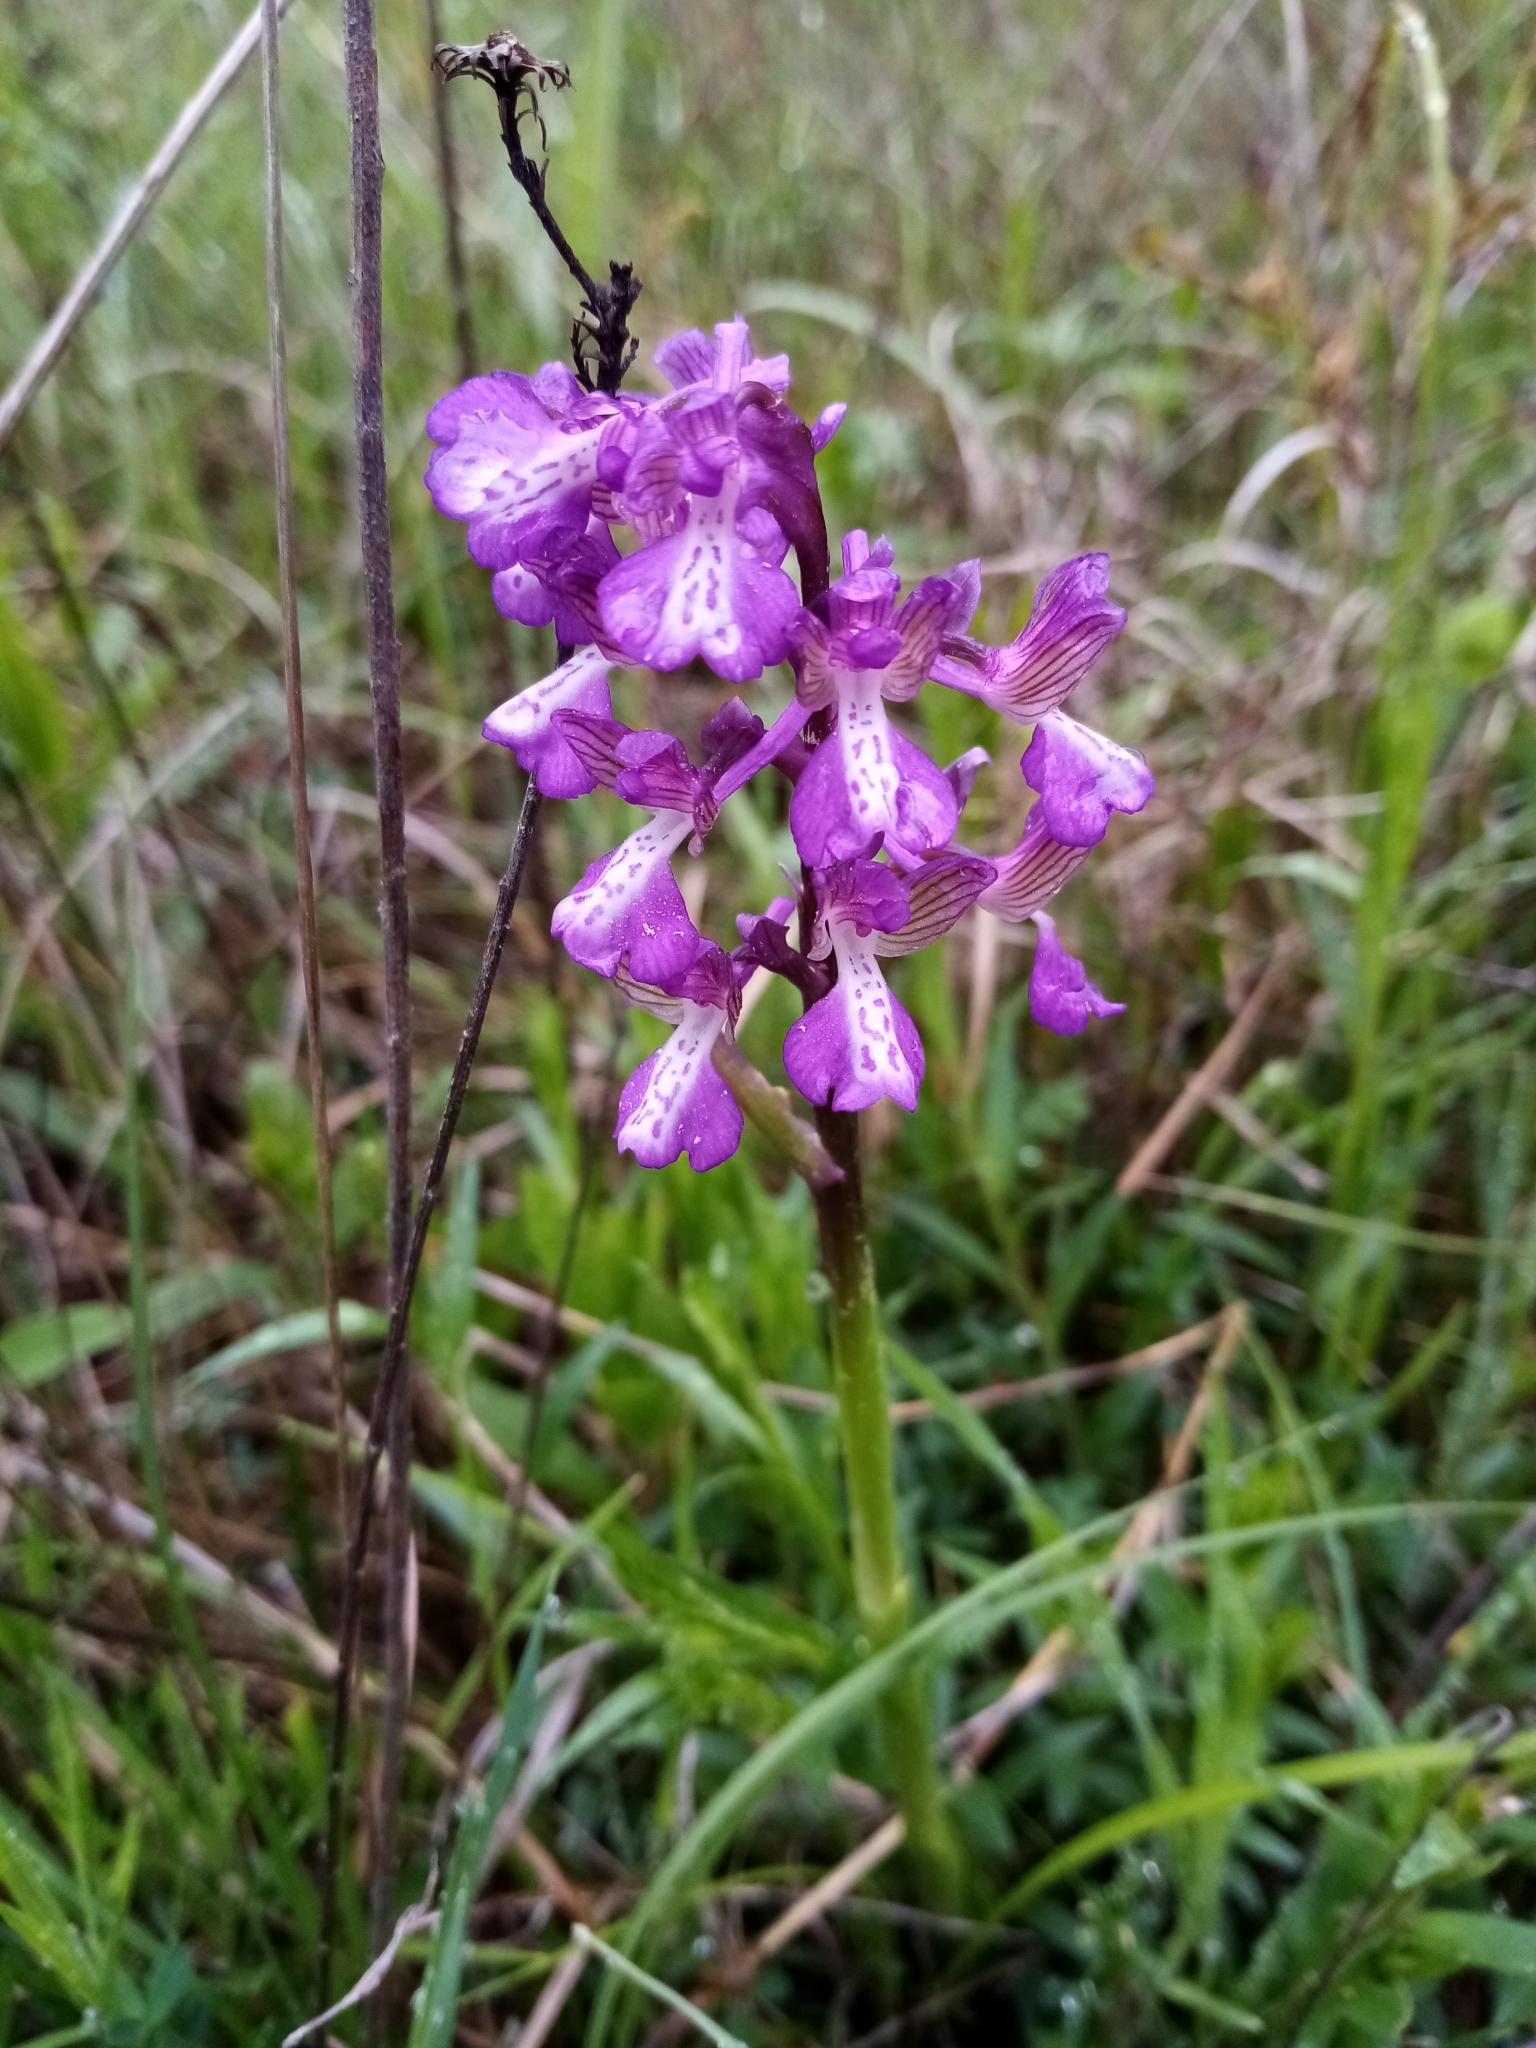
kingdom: Plantae
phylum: Tracheophyta
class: Liliopsida
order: Asparagales
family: Orchidaceae
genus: Anacamptis
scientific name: Anacamptis morio
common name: Green-winged orchid
